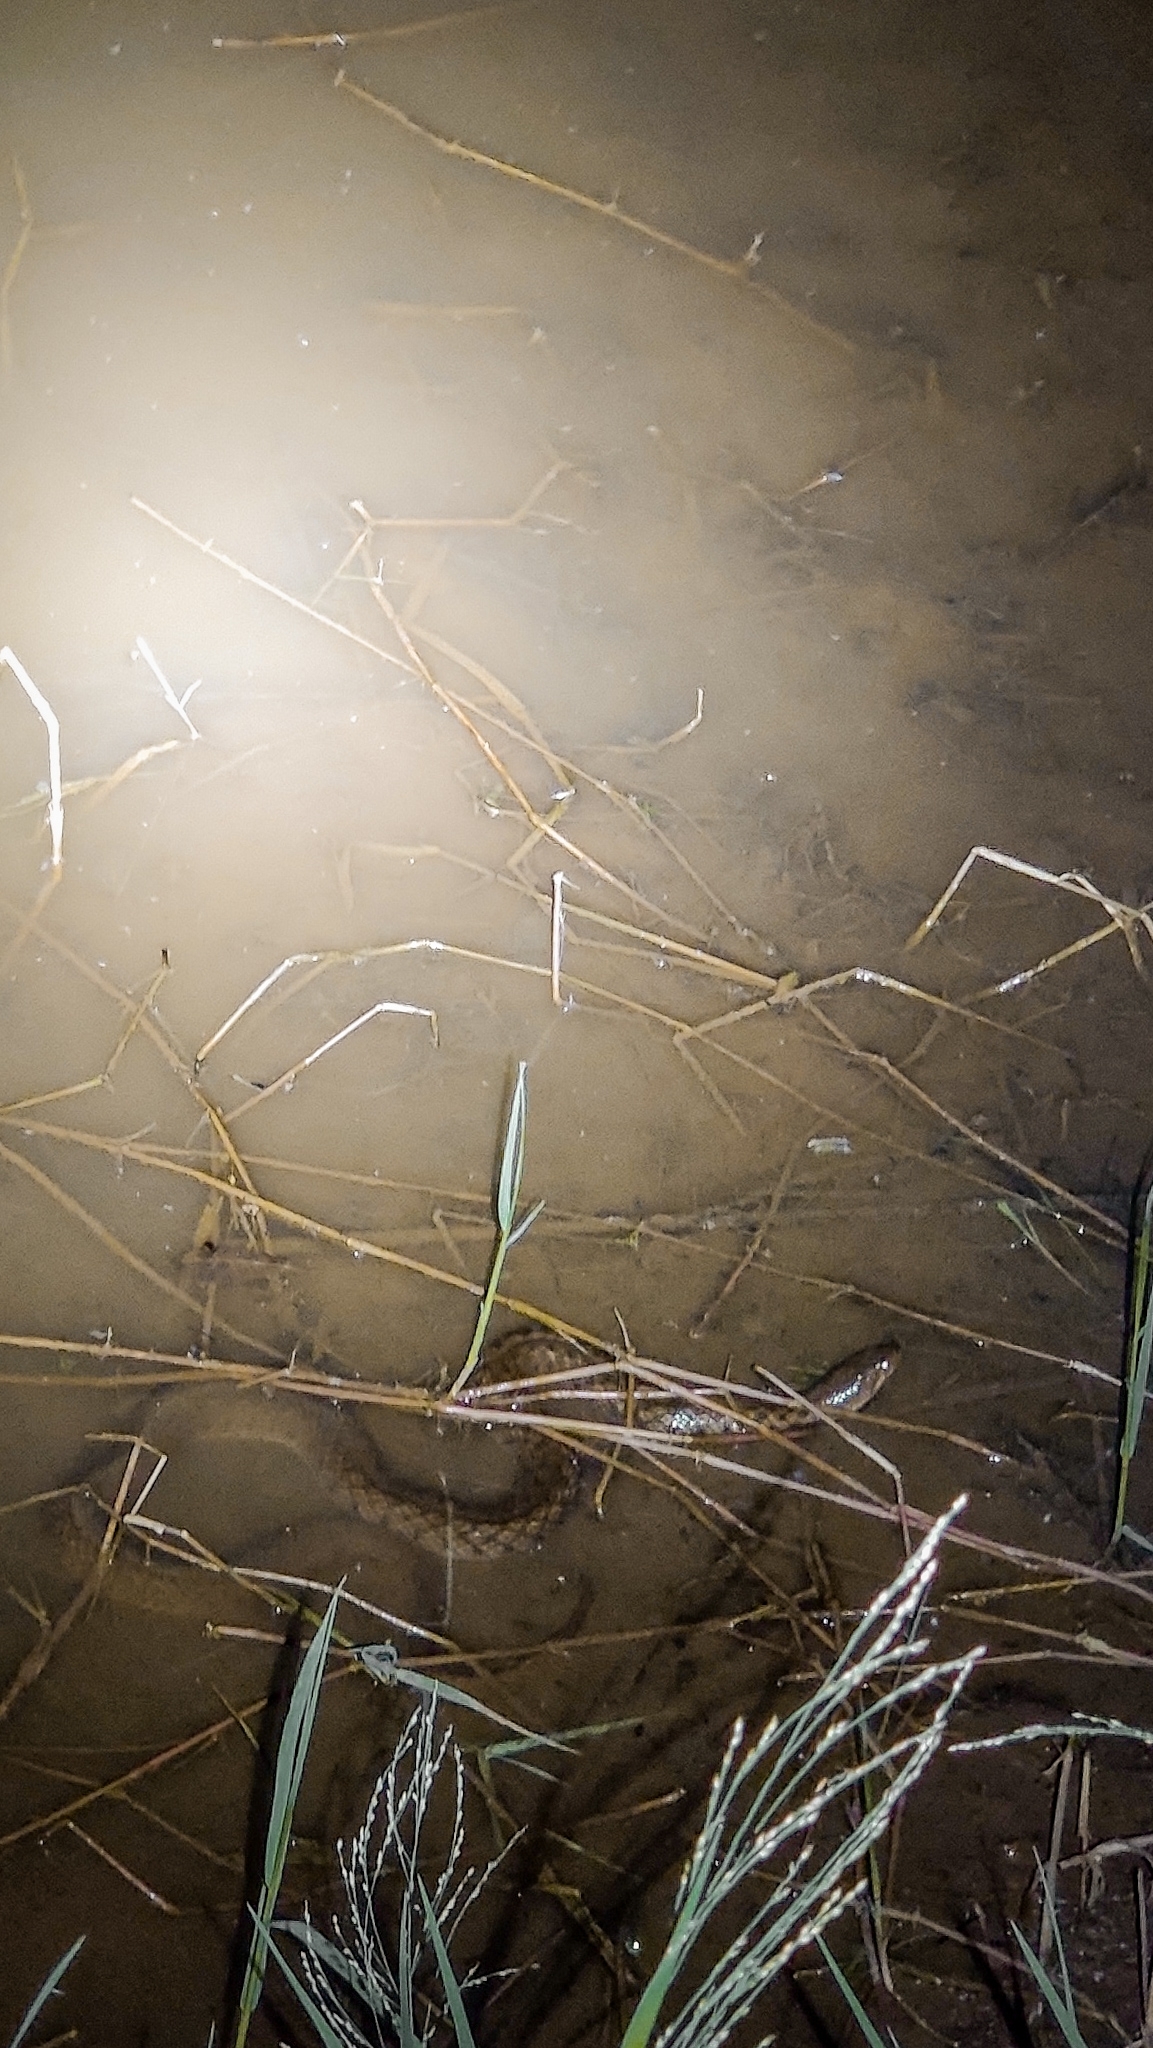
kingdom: Animalia
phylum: Chordata
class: Squamata
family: Colubridae
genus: Fowlea
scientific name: Fowlea piscator
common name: Asiatic water snake
